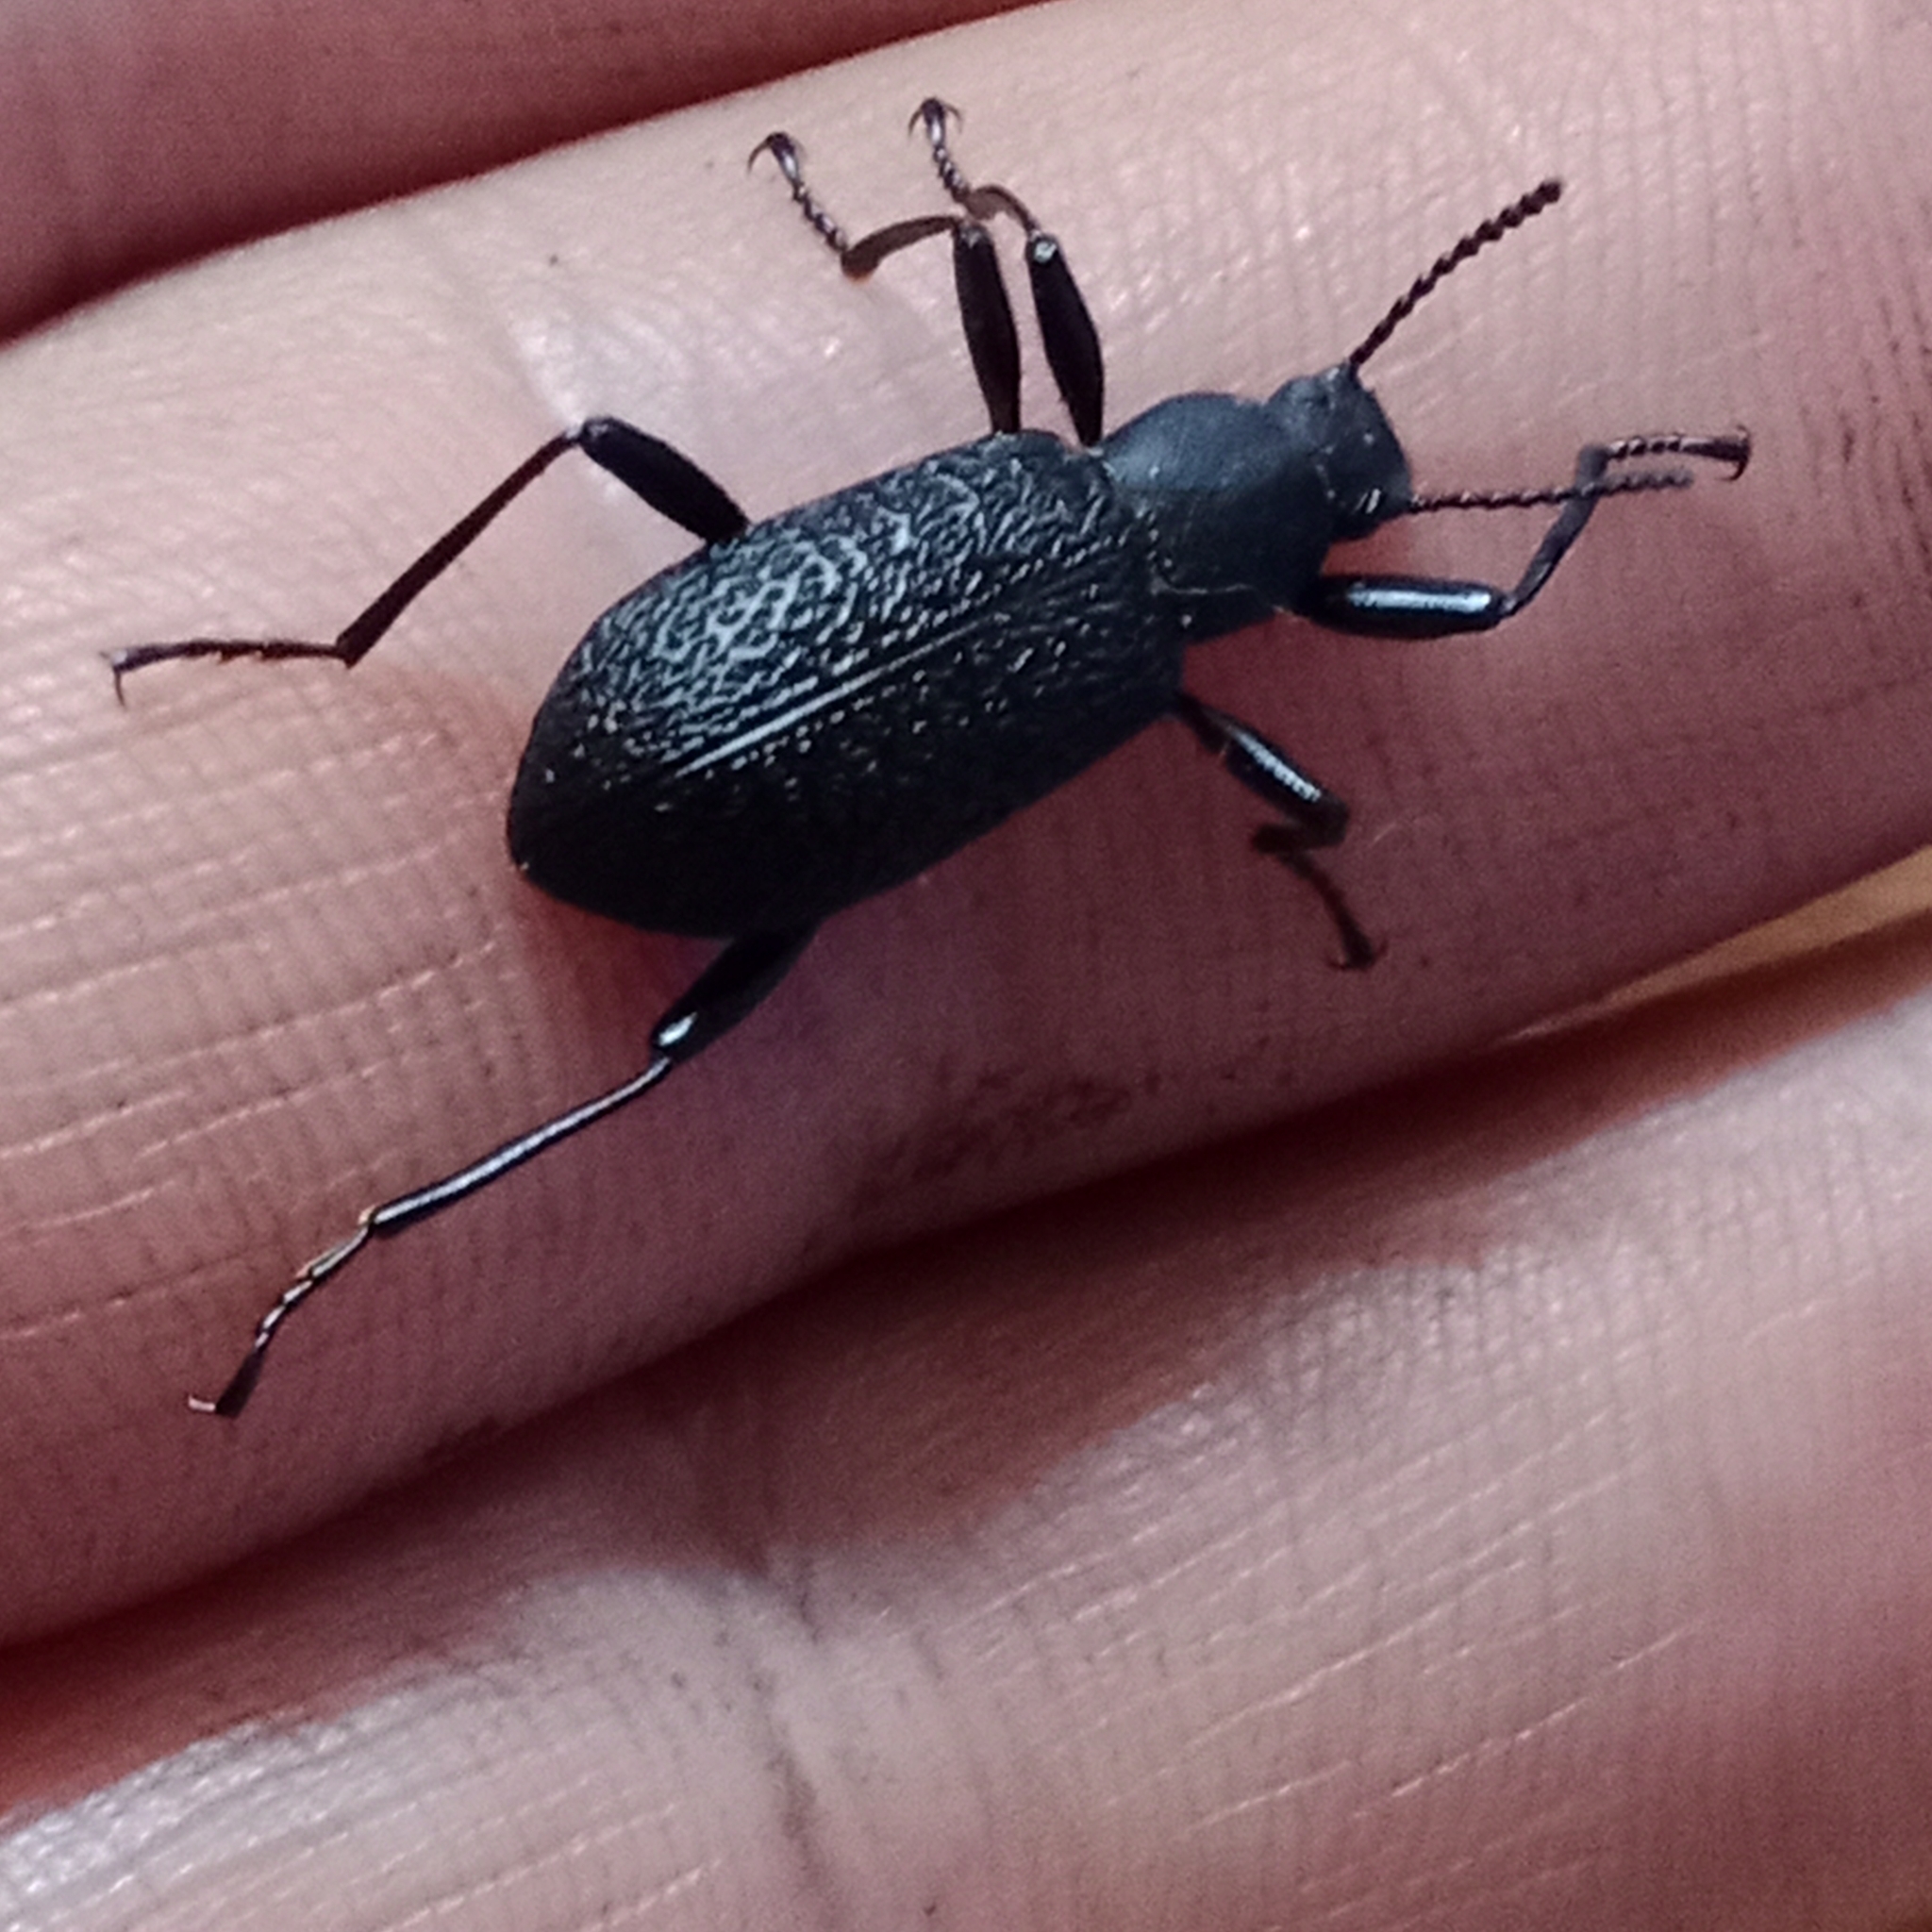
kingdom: Animalia
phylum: Arthropoda
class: Insecta
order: Coleoptera
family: Tenebrionidae
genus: Upis
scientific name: Upis ceramboides
